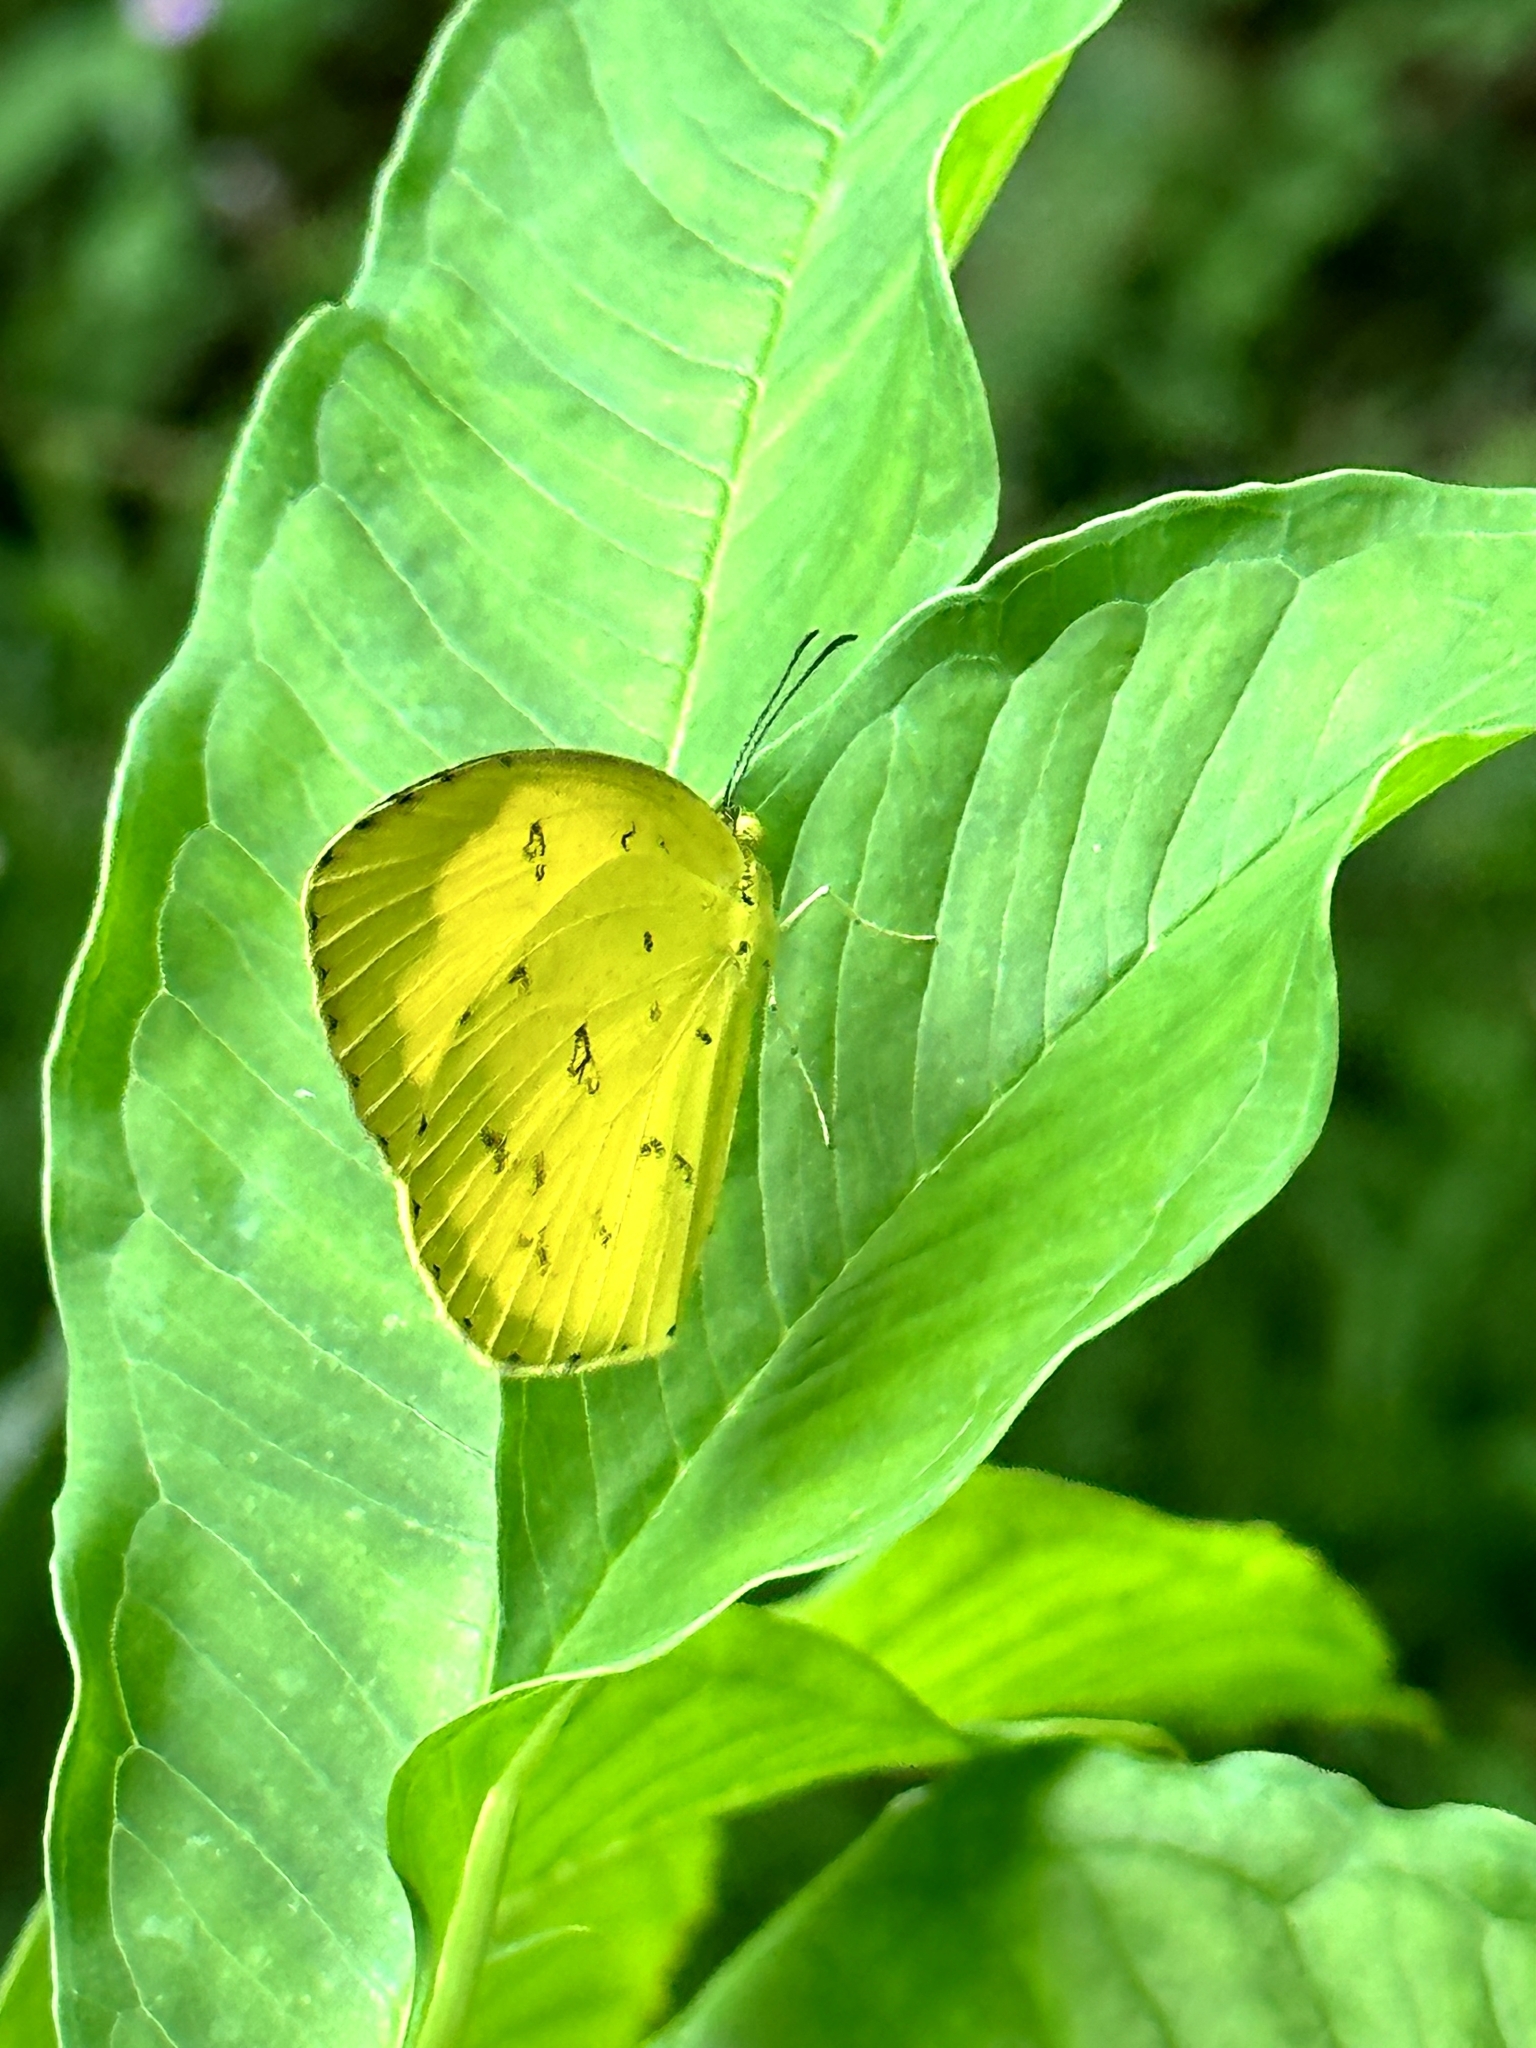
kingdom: Animalia
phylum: Arthropoda
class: Insecta
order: Lepidoptera
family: Pieridae
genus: Eurema
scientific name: Eurema hecabe
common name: Pale grass yellow
